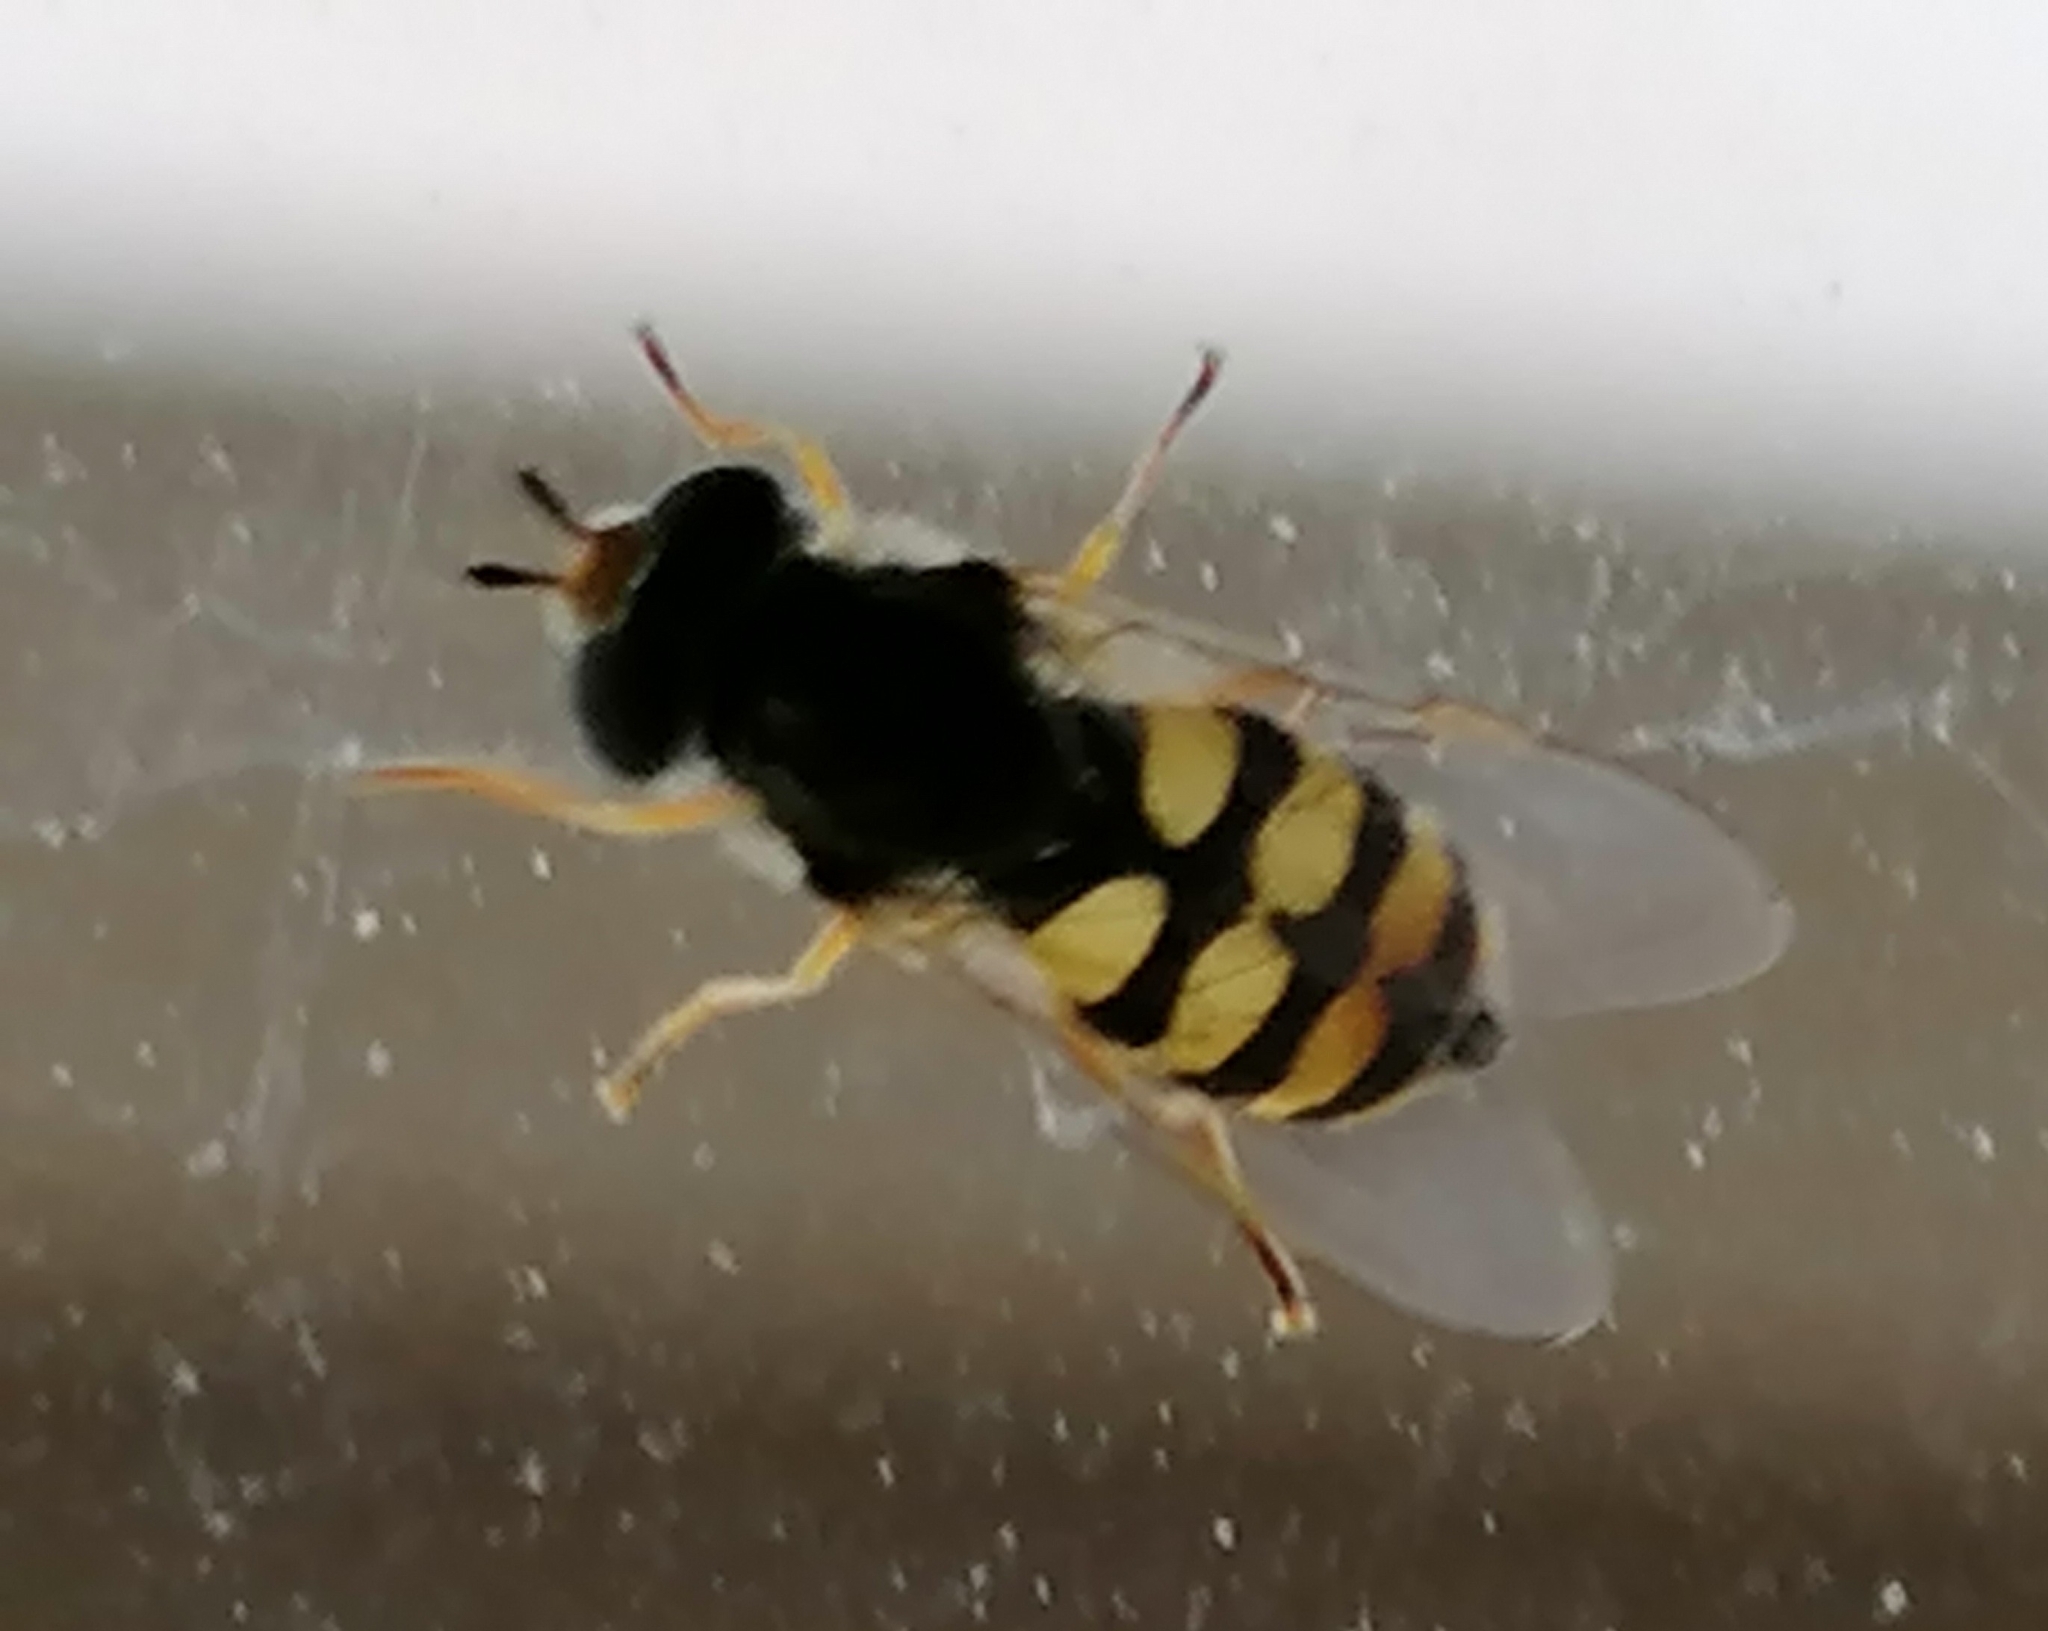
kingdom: Animalia
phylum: Arthropoda
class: Insecta
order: Diptera
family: Syrphidae
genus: Eupeodes
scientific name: Eupeodes corollae
